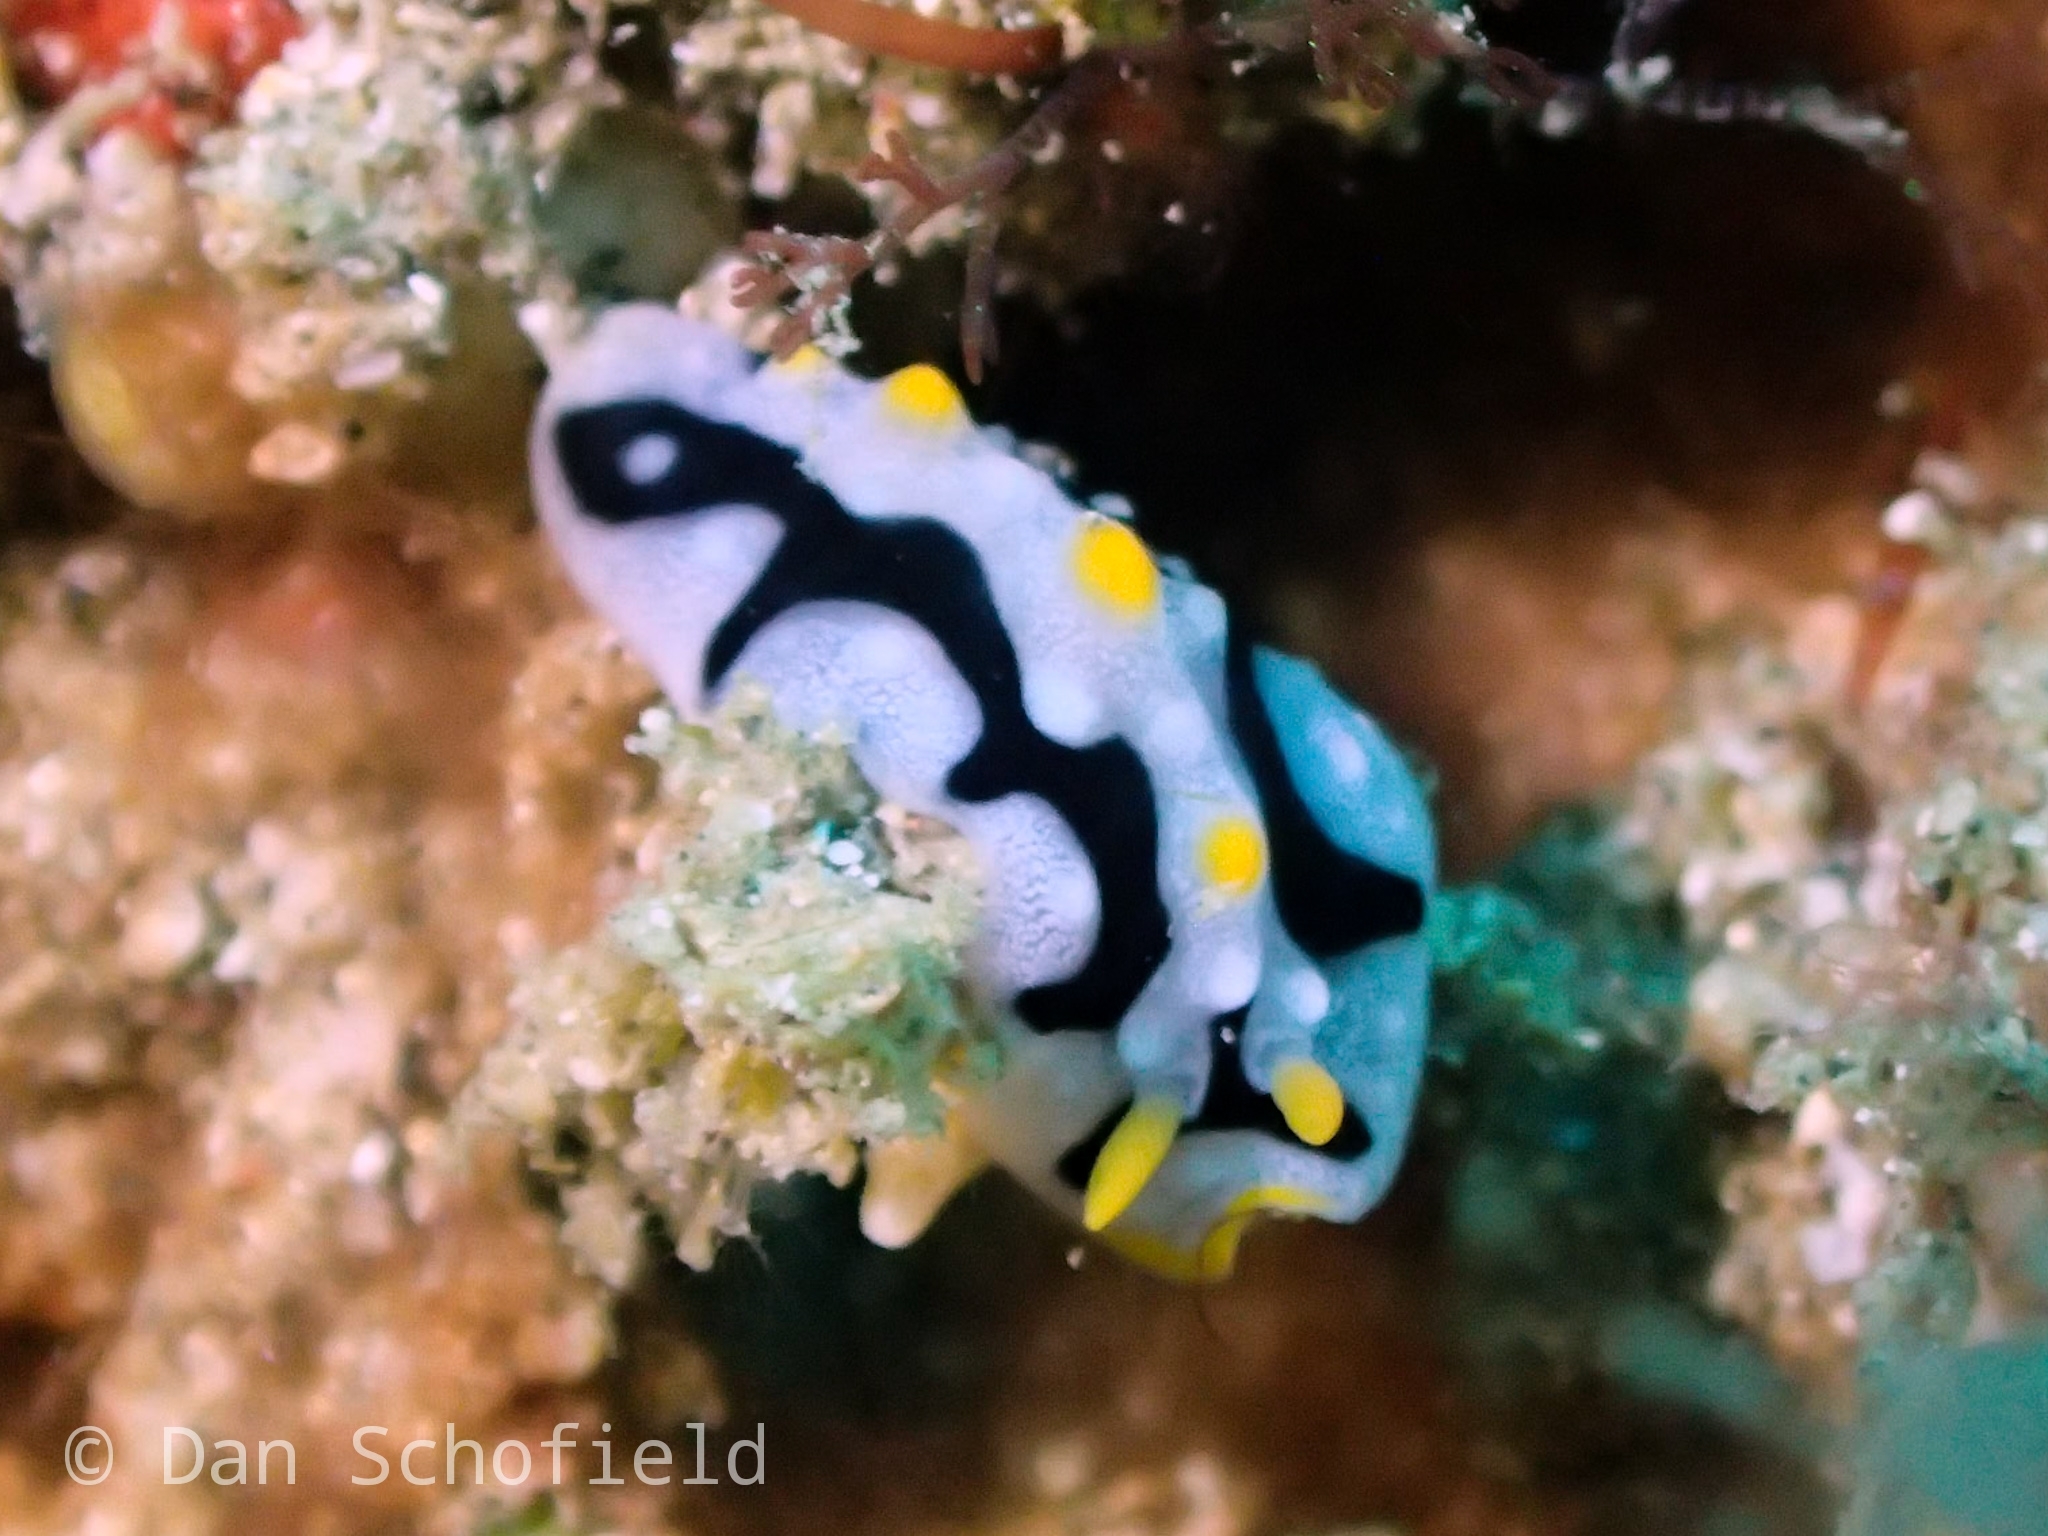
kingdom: Animalia
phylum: Mollusca
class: Gastropoda
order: Nudibranchia
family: Phyllidiidae
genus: Phyllidia
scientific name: Phyllidia exquisita
